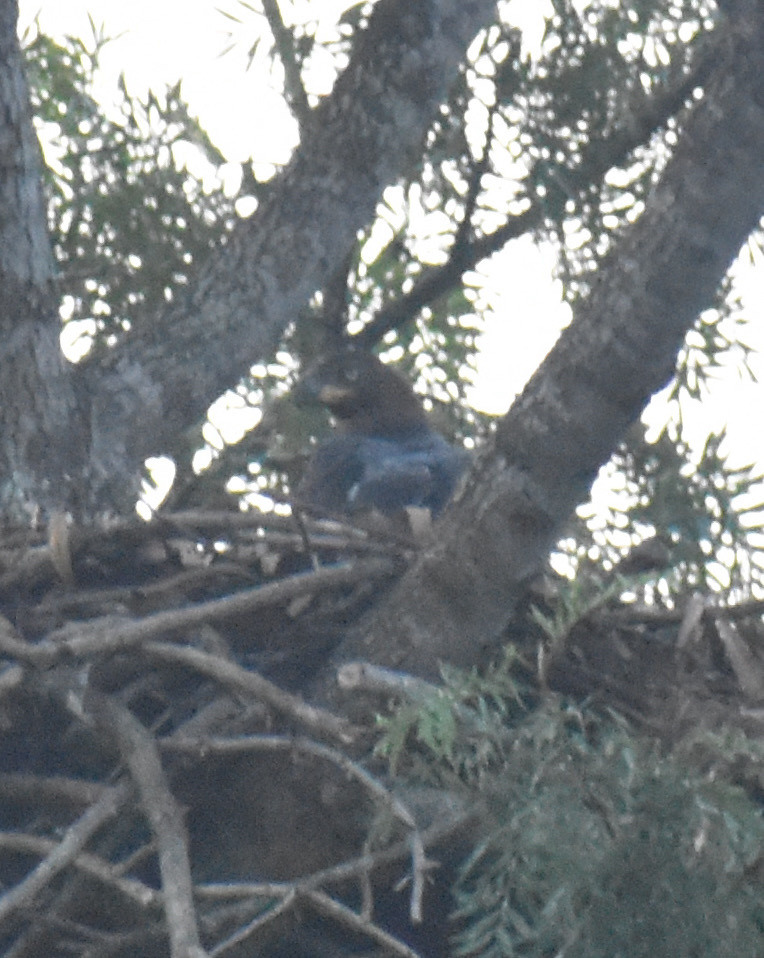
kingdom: Animalia
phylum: Chordata
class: Aves
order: Accipitriformes
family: Accipitridae
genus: Stephanoaetus
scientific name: Stephanoaetus coronatus
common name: Crowned eagle
